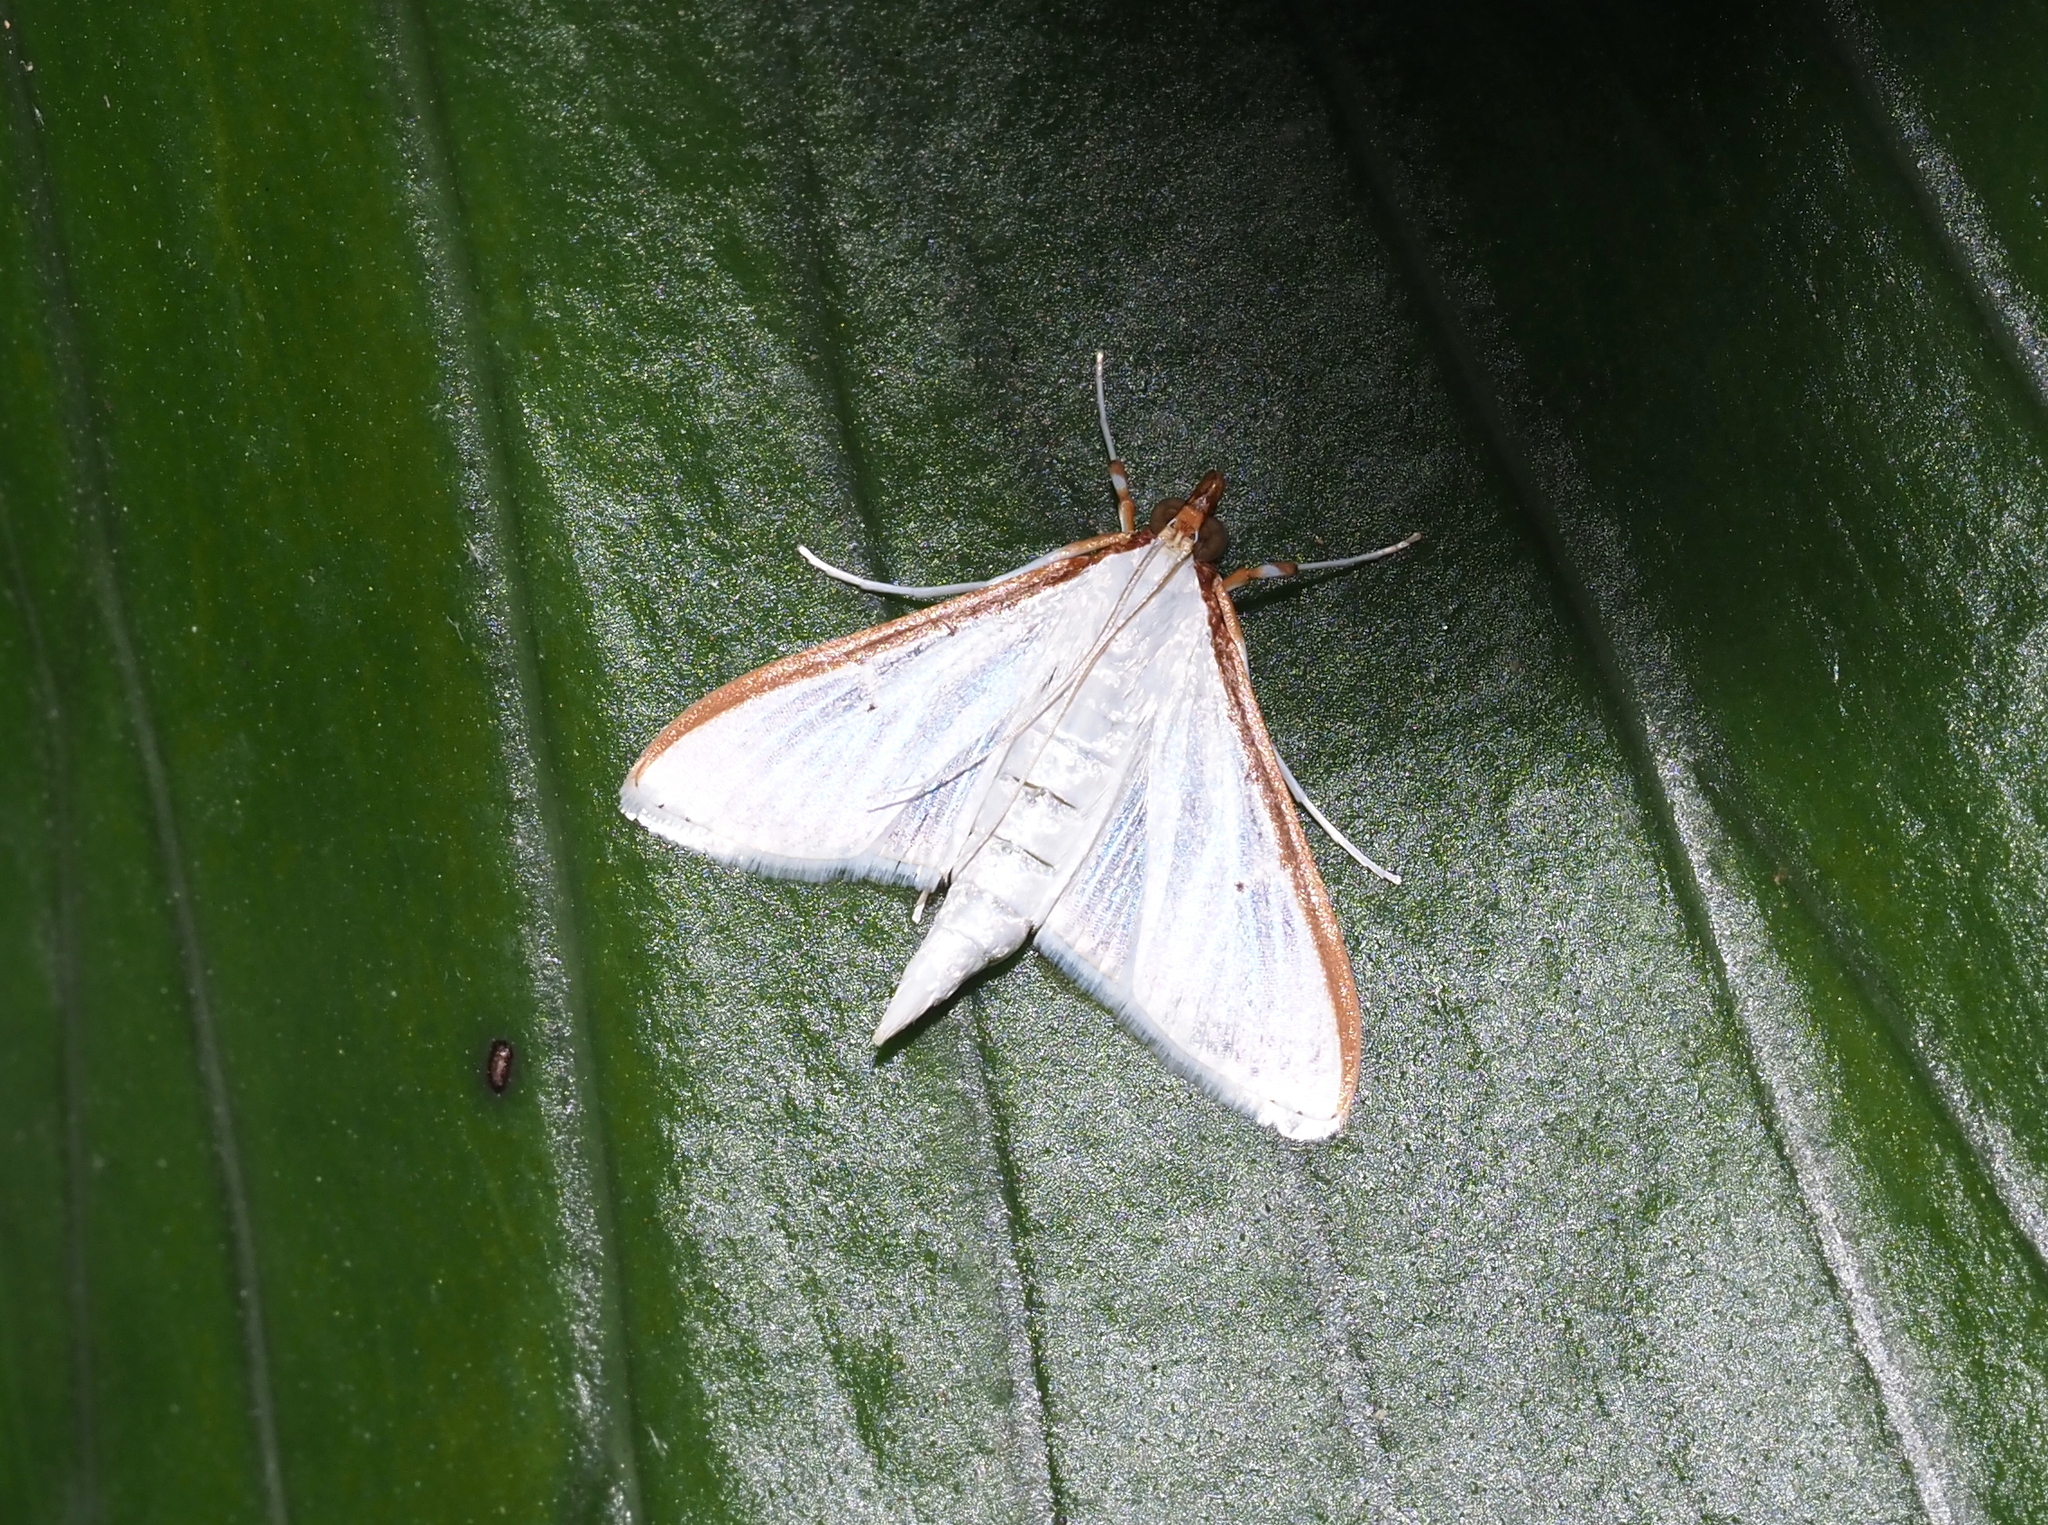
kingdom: Animalia
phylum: Arthropoda
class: Insecta
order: Lepidoptera
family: Crambidae
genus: Palpita
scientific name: Palpita quadristigmalis
